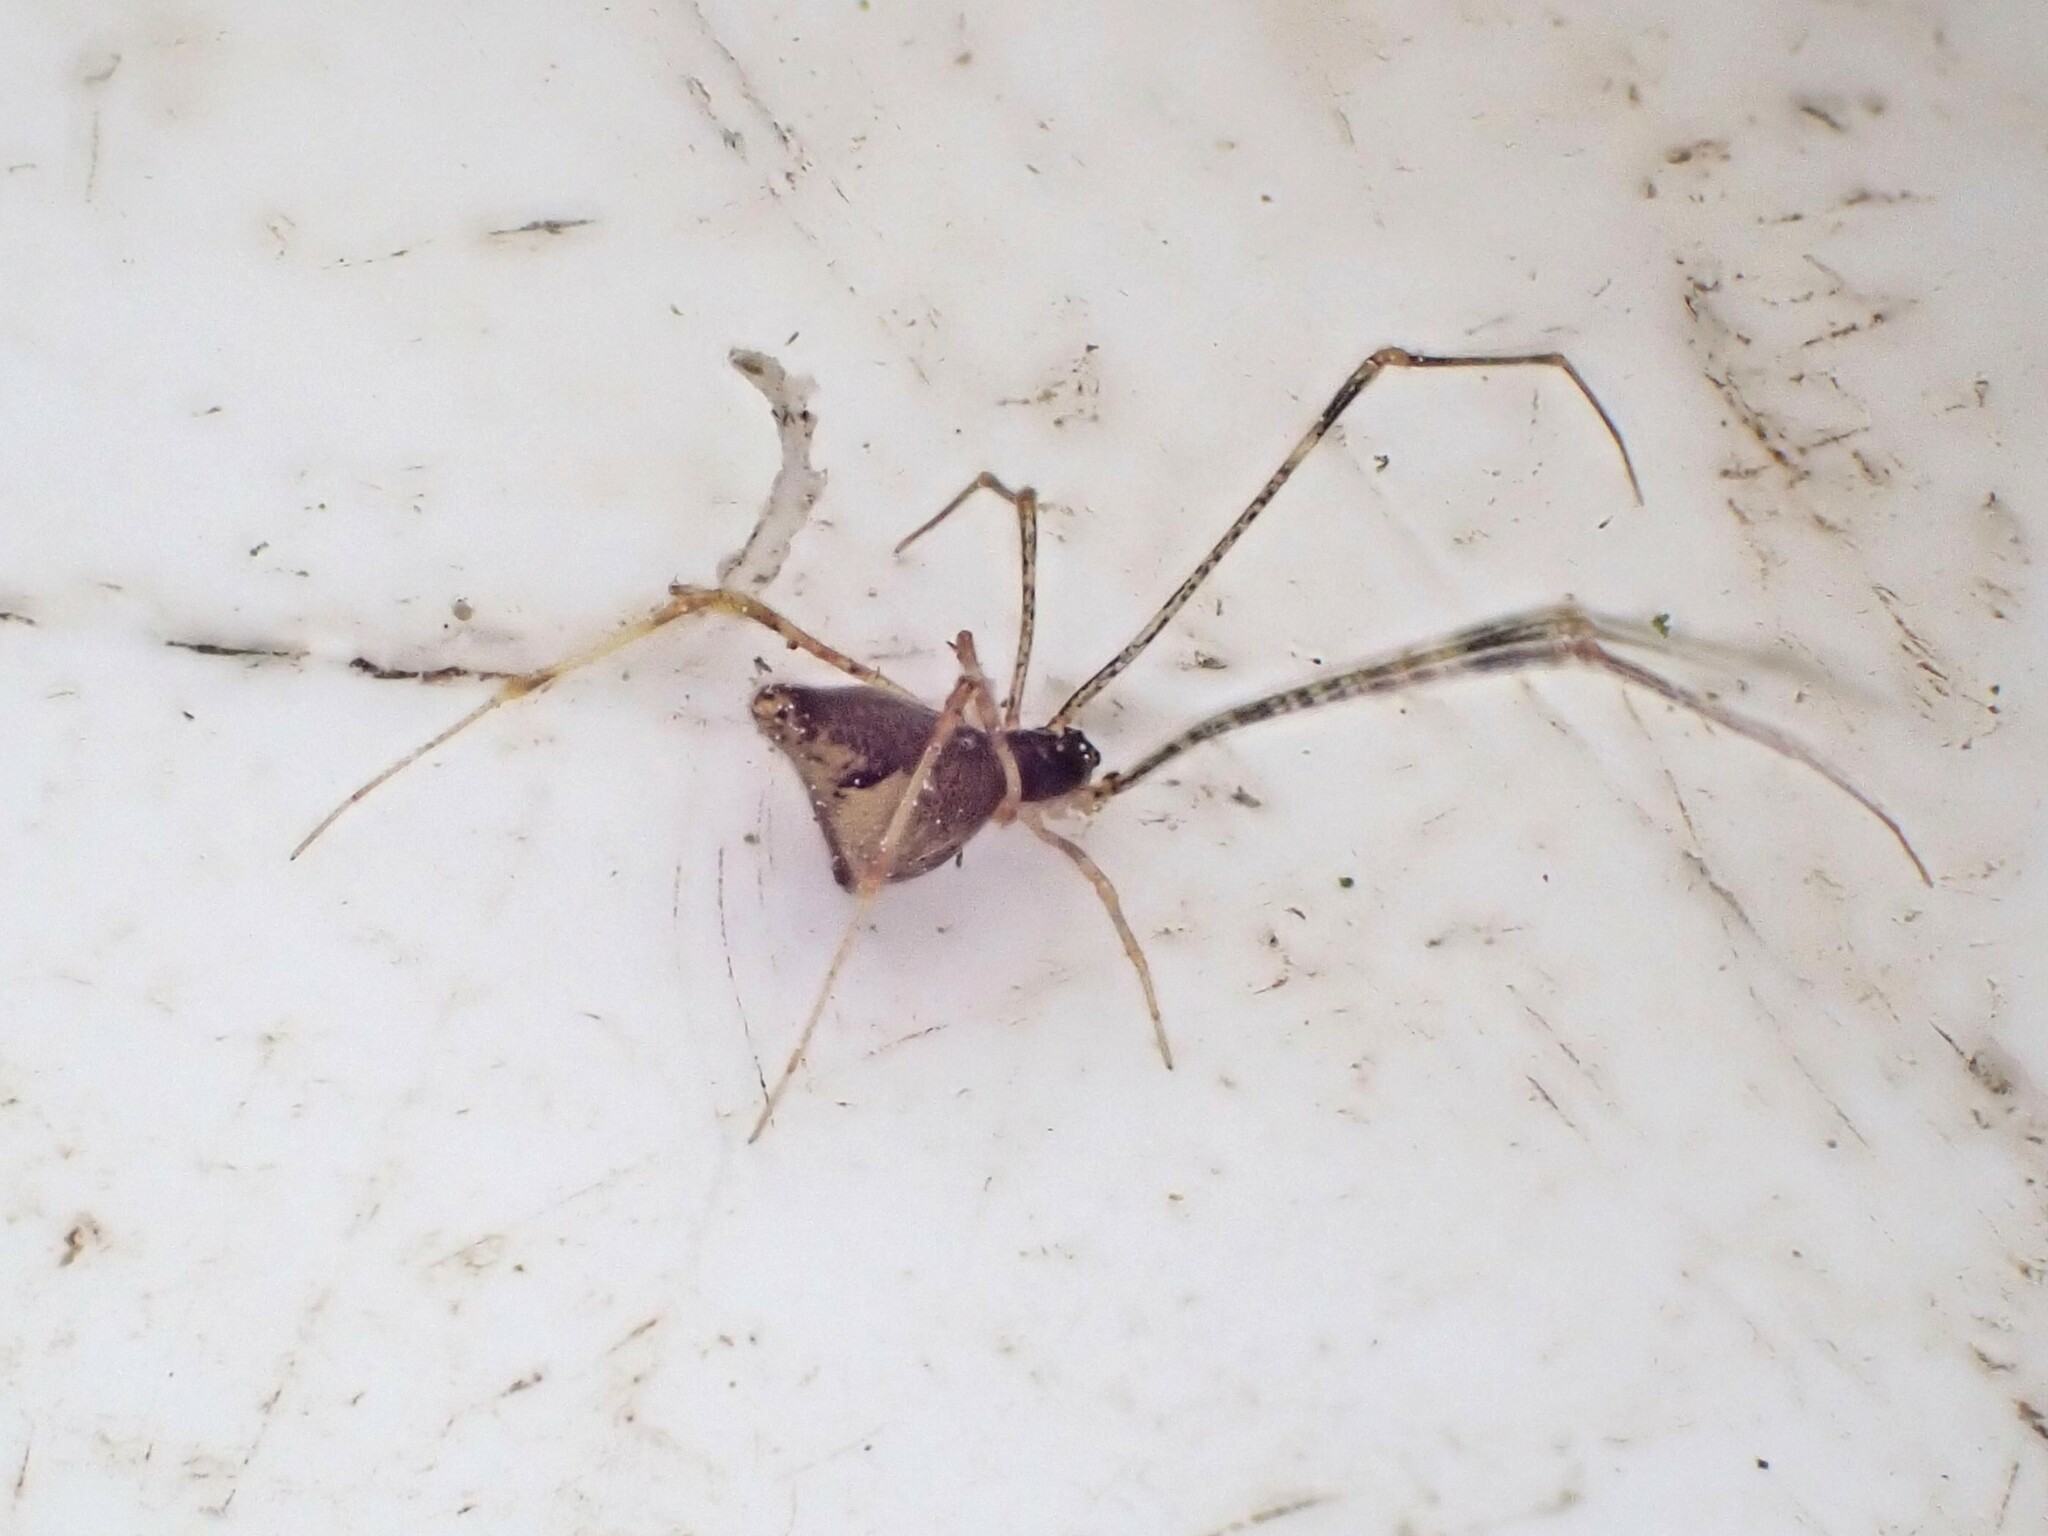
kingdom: Animalia
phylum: Arthropoda
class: Arachnida
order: Araneae
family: Theridiidae
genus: Rhomphaea
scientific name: Rhomphaea urquharti
